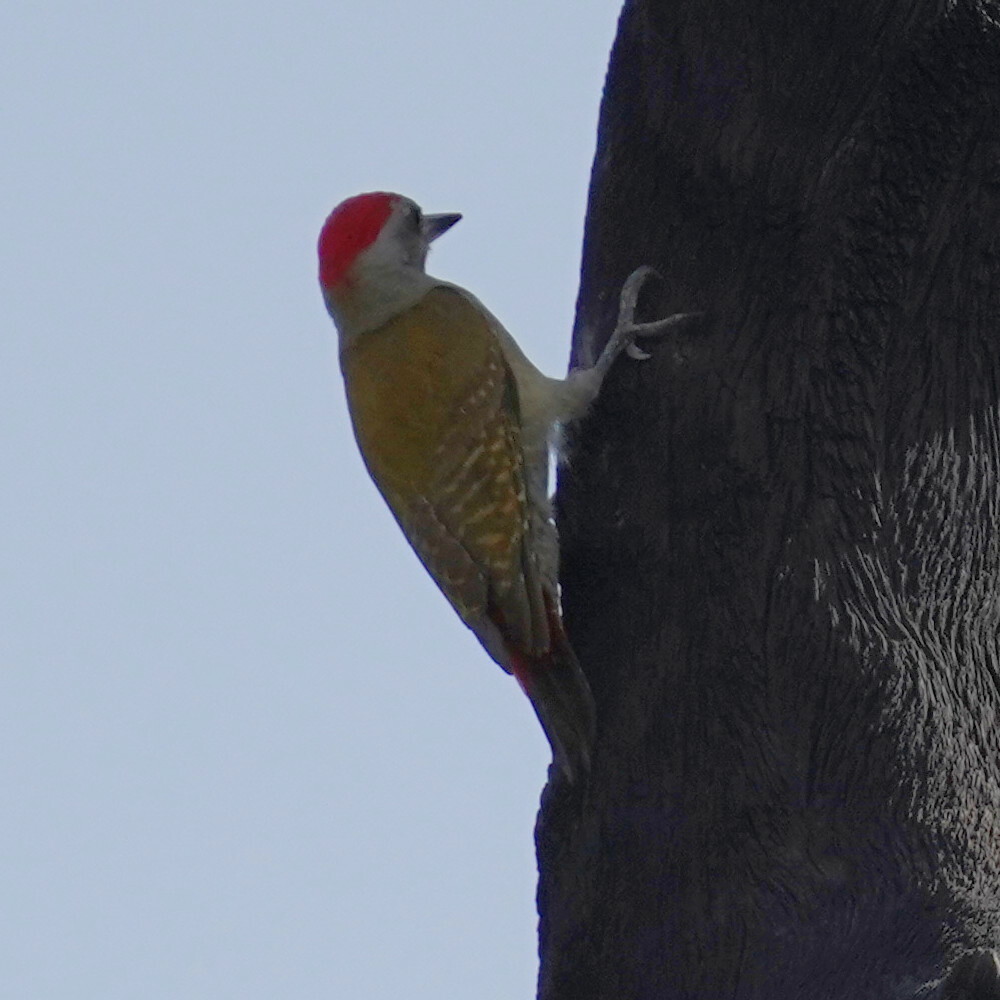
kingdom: Animalia
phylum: Chordata
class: Aves
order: Piciformes
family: Picidae
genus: Dendropicos
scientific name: Dendropicos goertae
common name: African grey woodpecker
